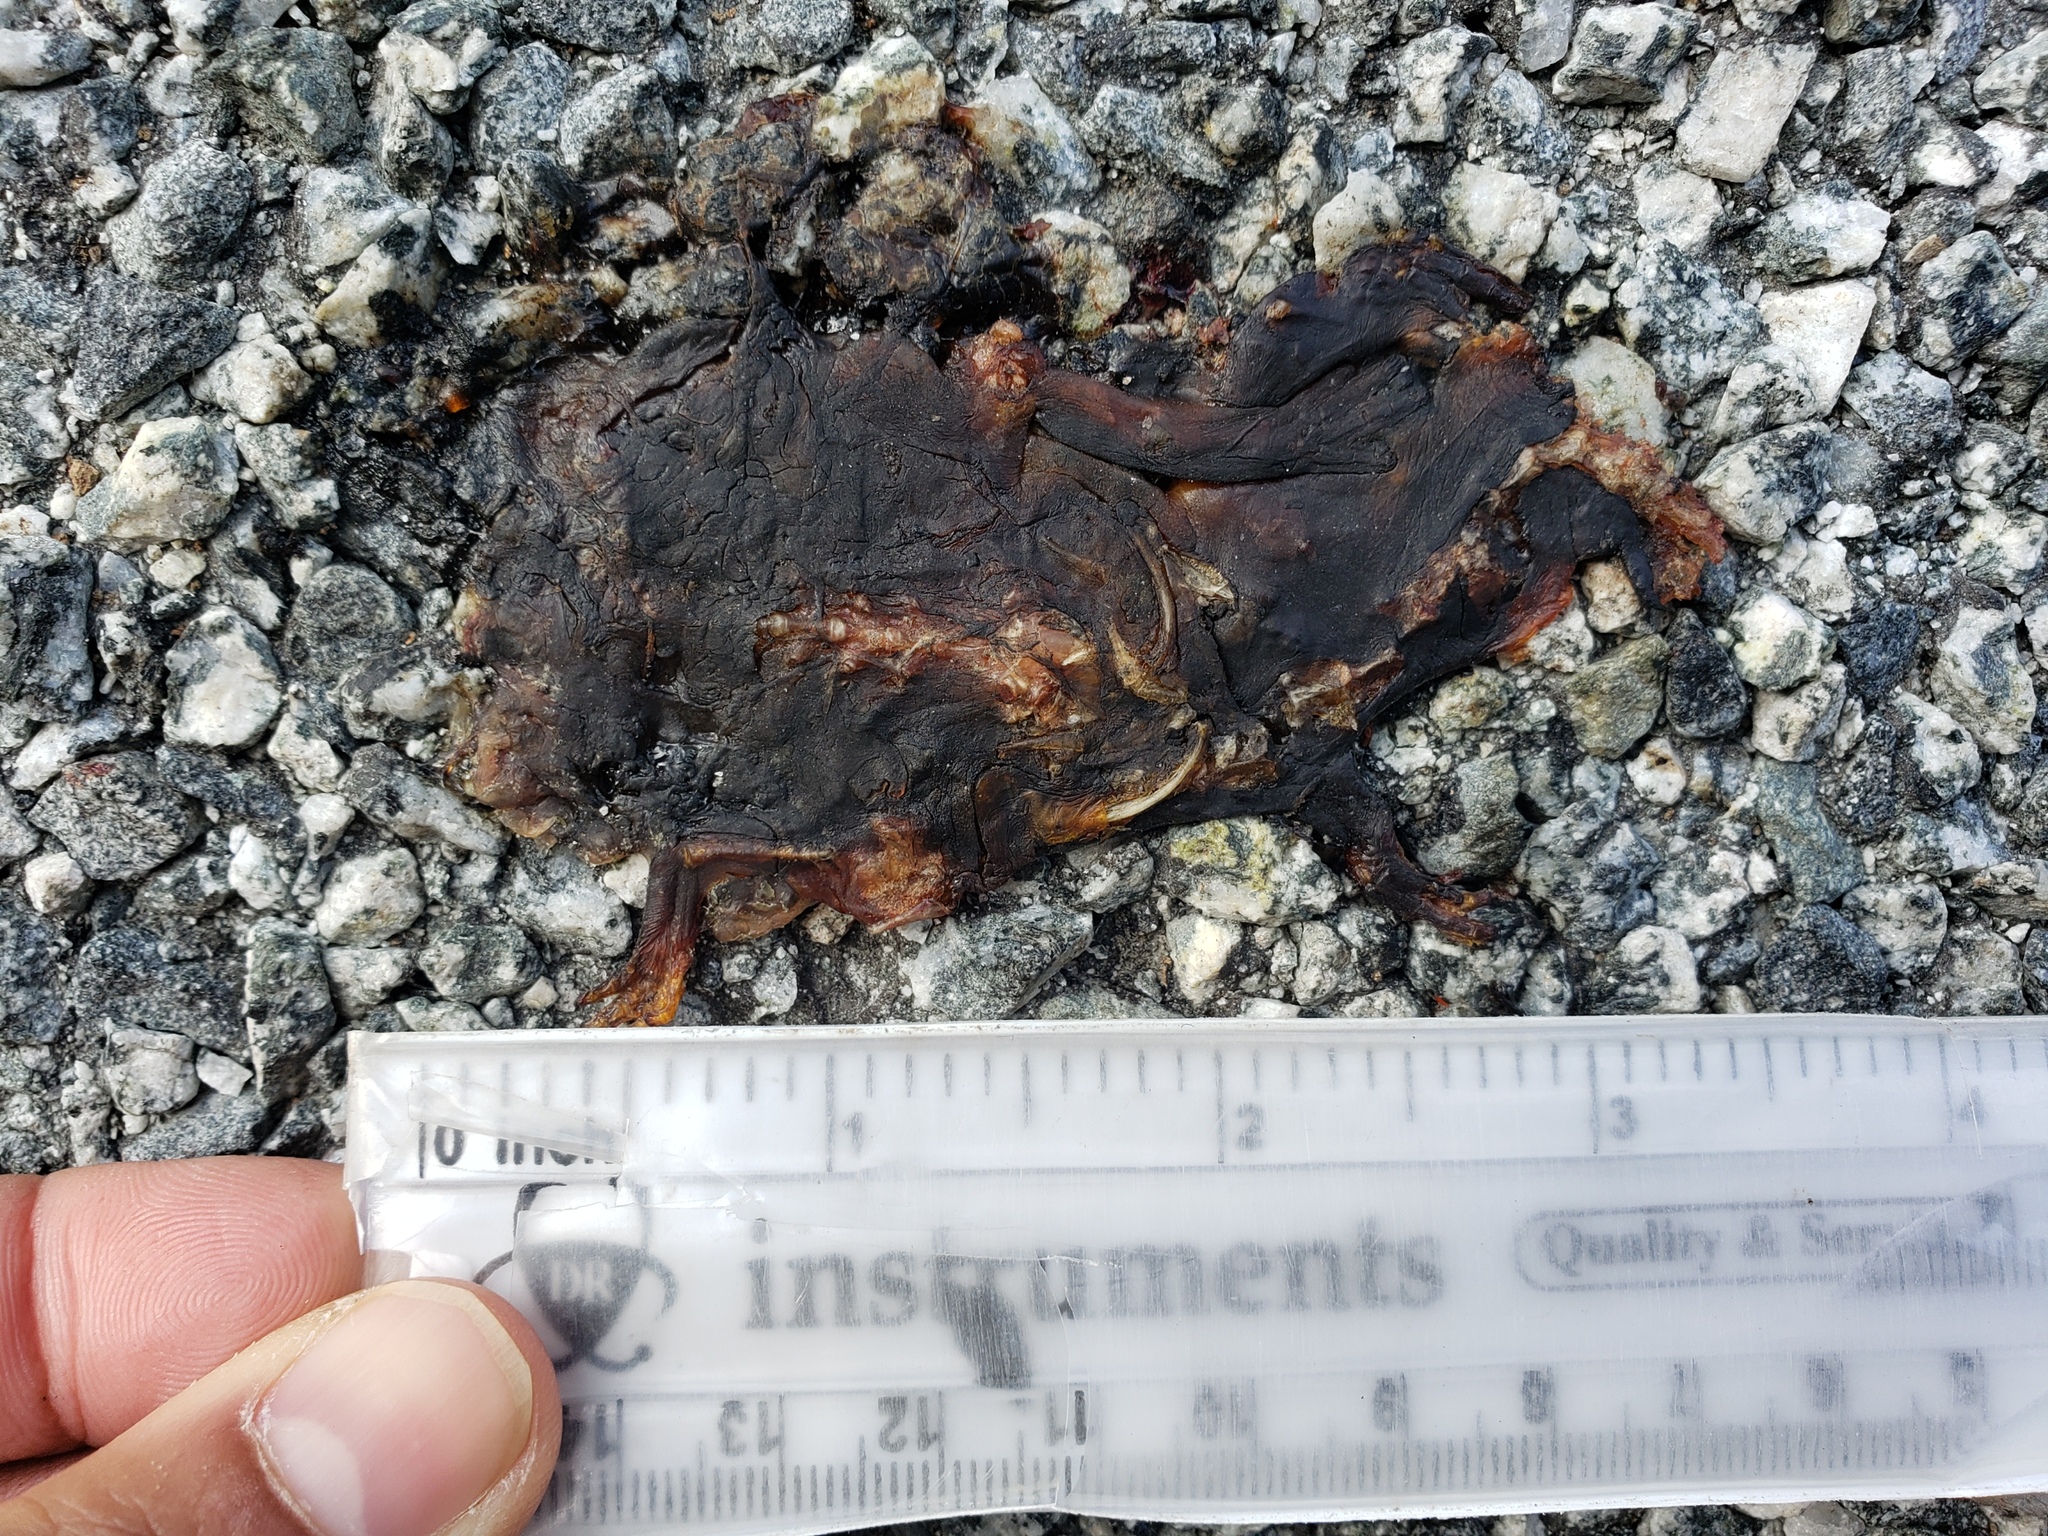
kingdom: Animalia
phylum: Chordata
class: Amphibia
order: Caudata
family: Salamandridae
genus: Taricha
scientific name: Taricha
